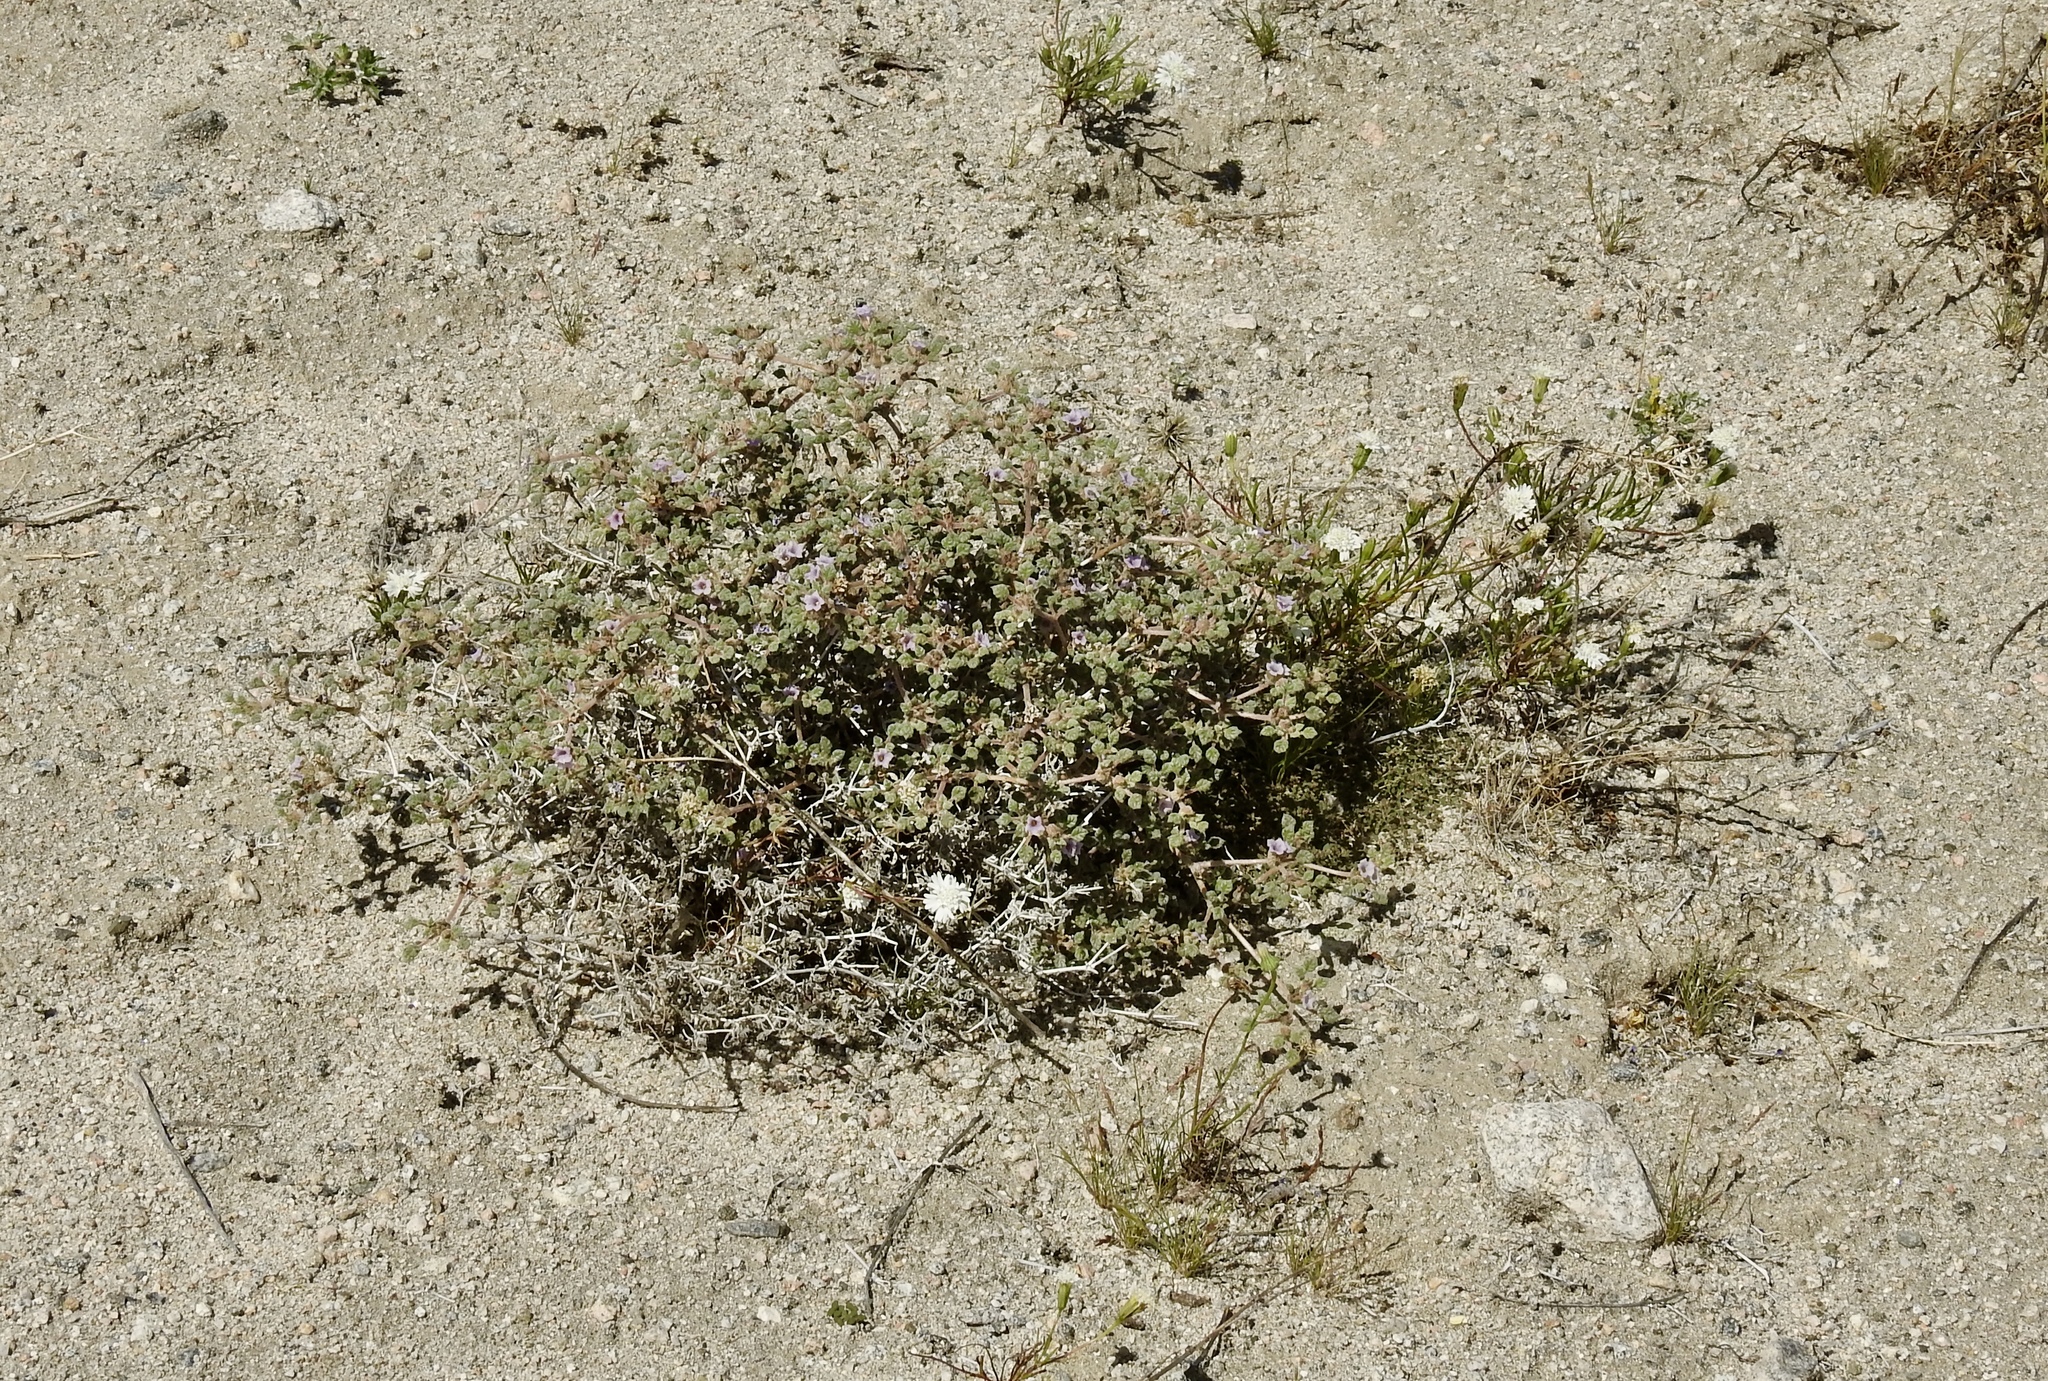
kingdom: Plantae
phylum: Tracheophyta
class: Magnoliopsida
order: Boraginales
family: Ehretiaceae
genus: Tiquilia
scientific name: Tiquilia palmeri
